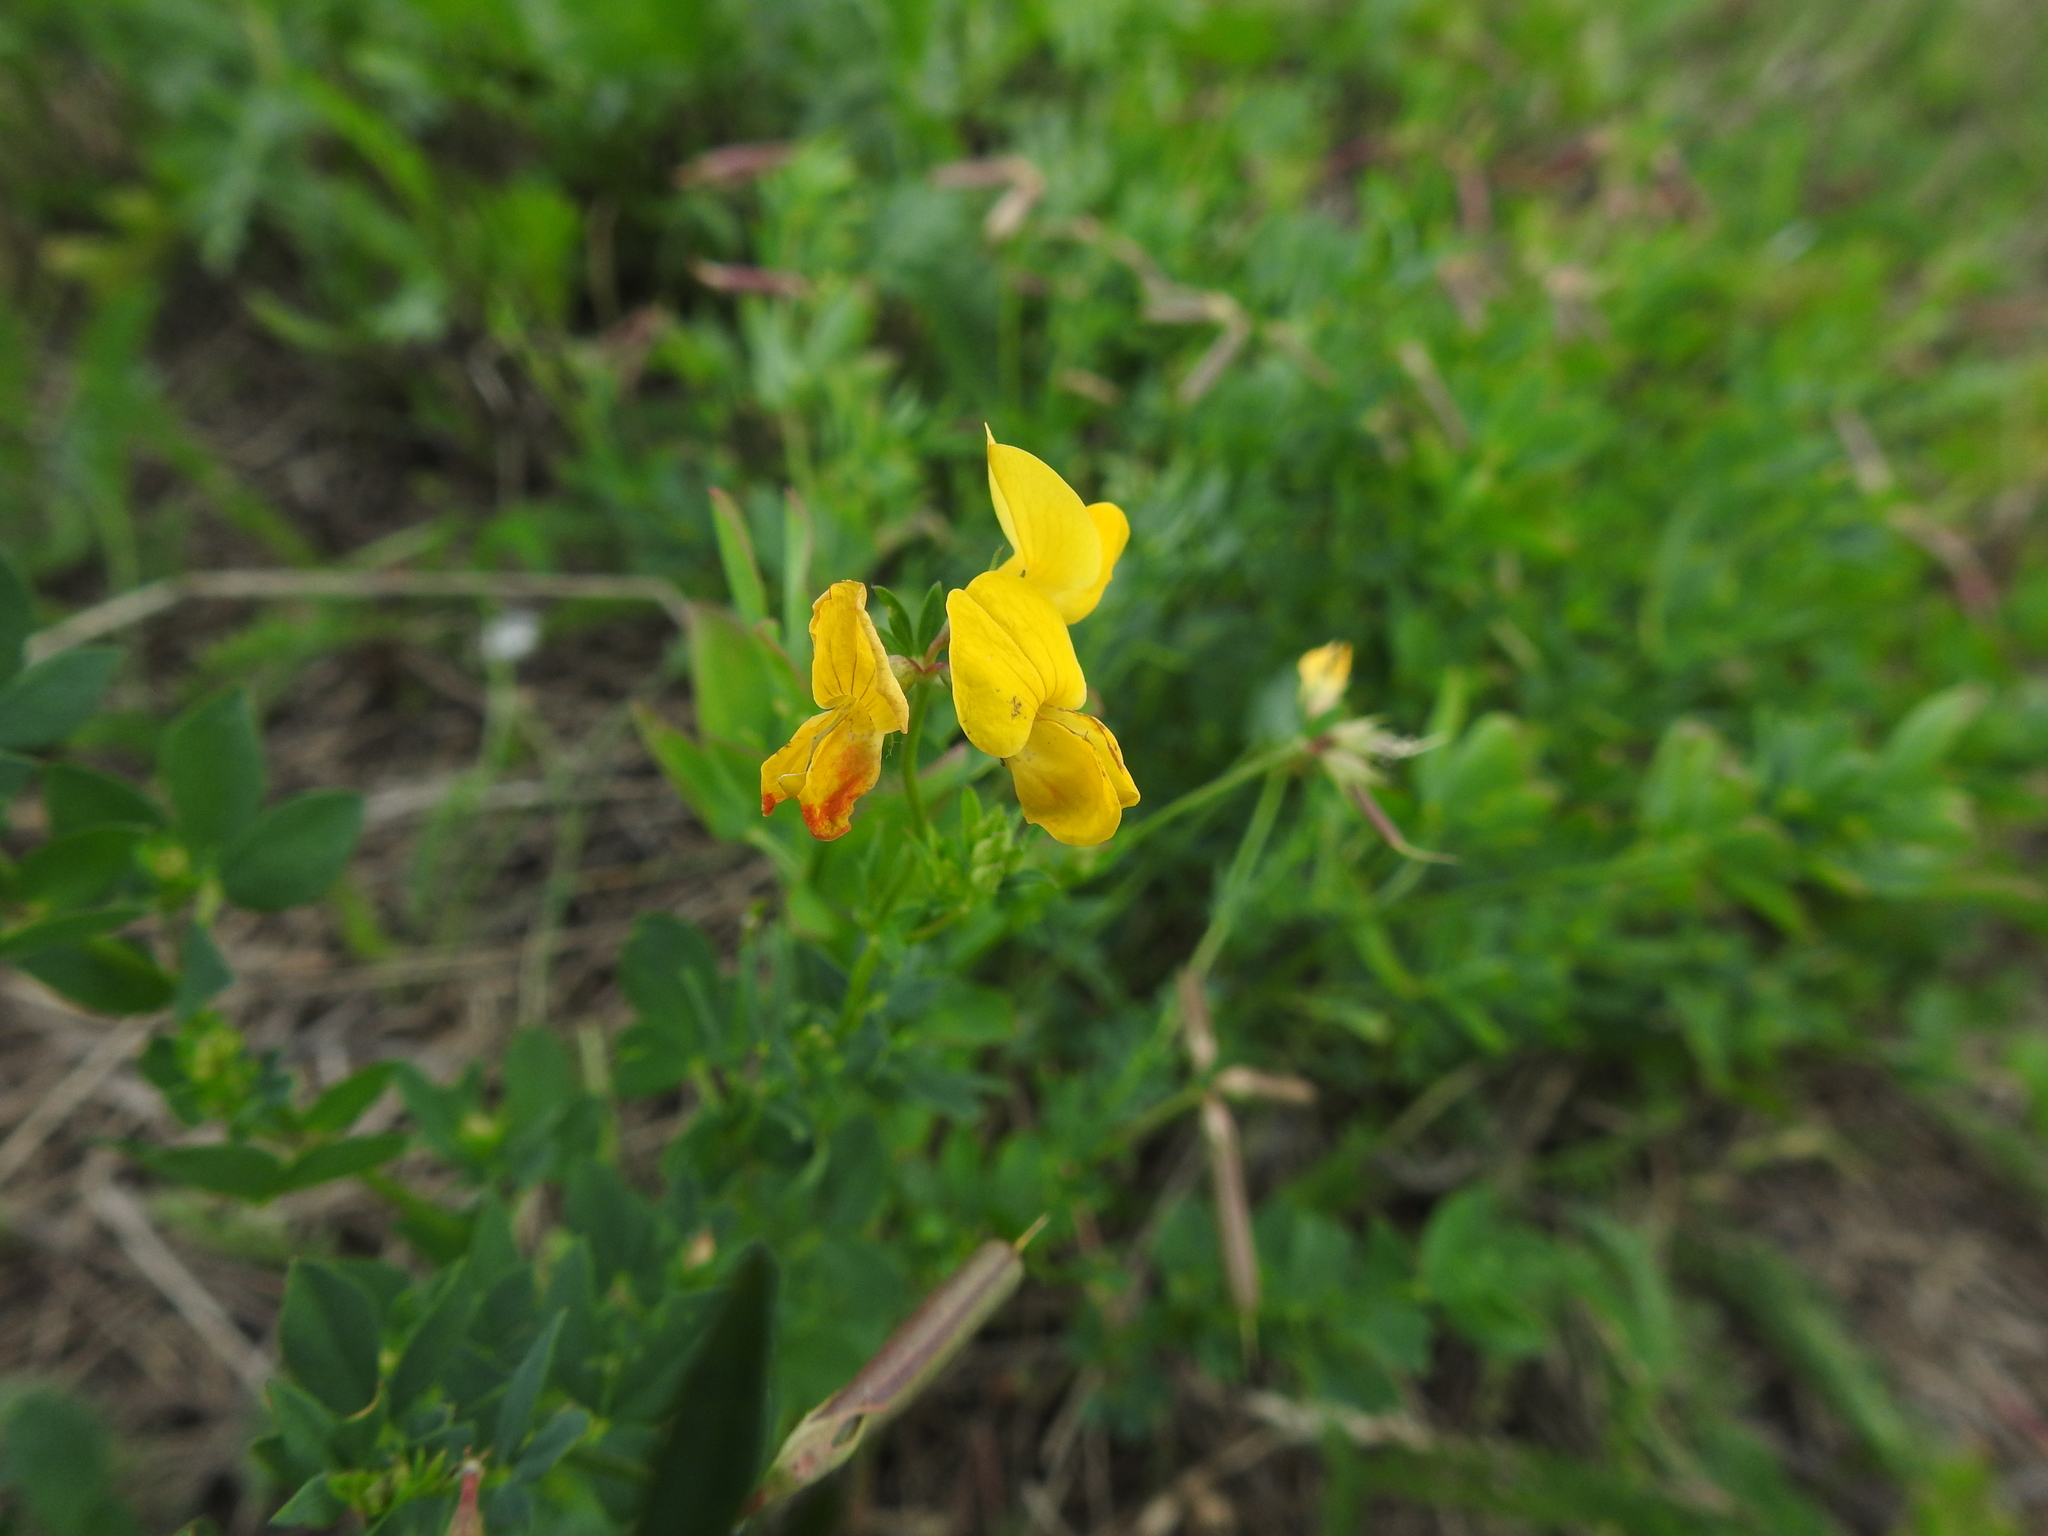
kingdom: Plantae
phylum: Tracheophyta
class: Magnoliopsida
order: Fabales
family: Fabaceae
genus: Lotus
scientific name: Lotus corniculatus
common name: Common bird's-foot-trefoil
